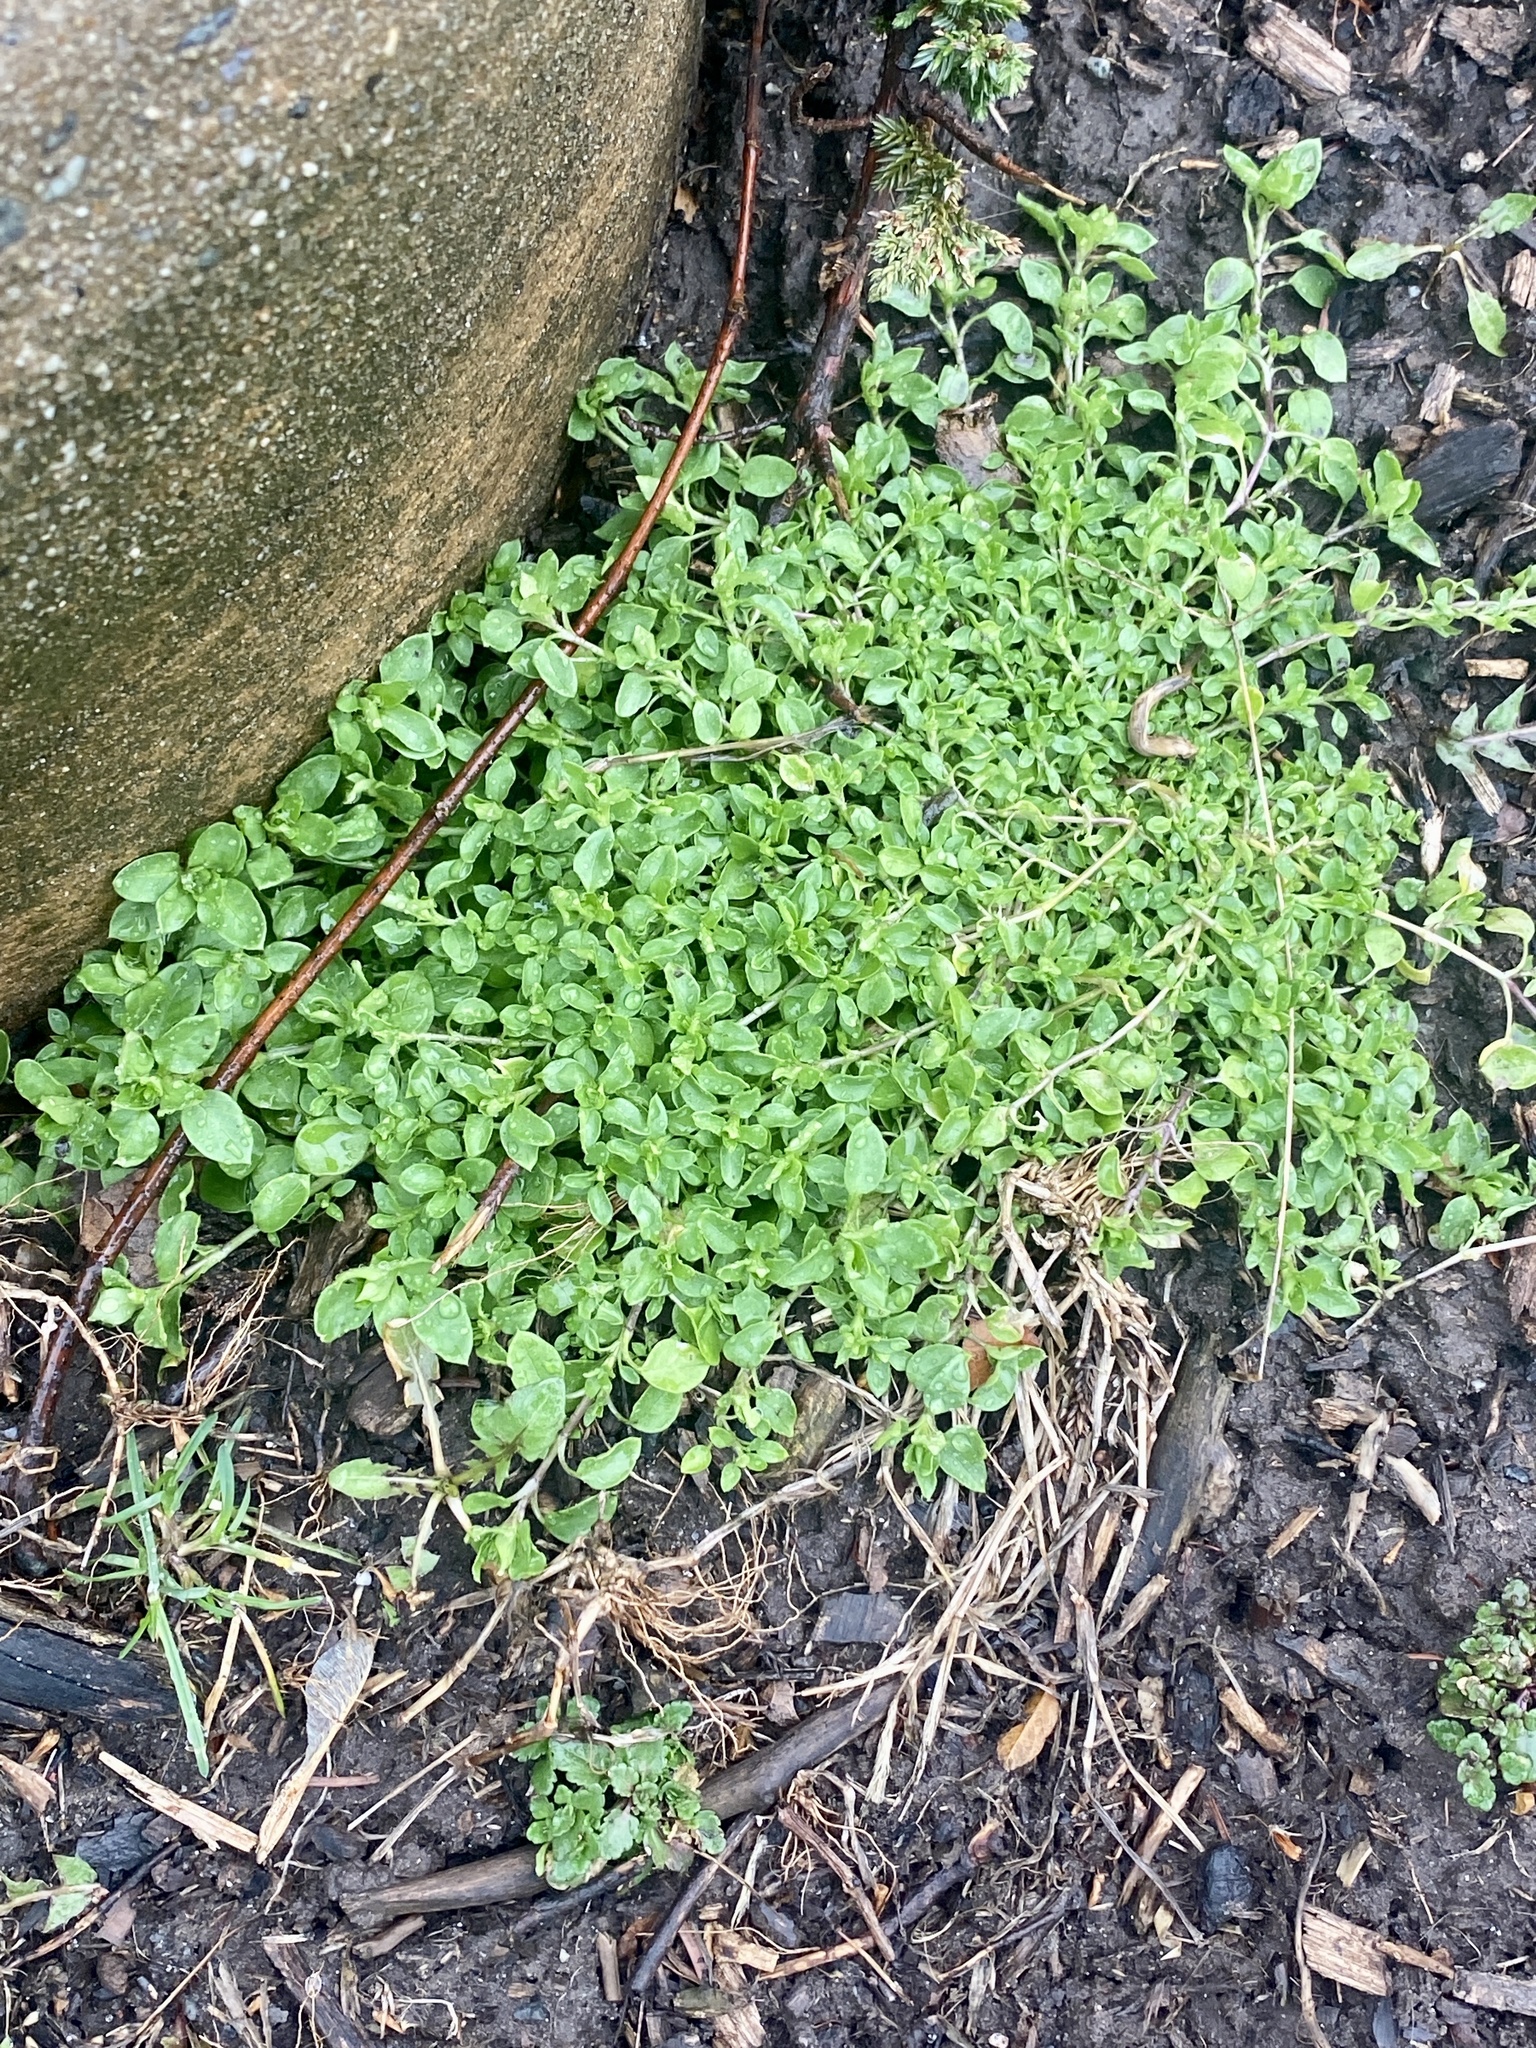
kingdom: Plantae
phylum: Tracheophyta
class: Magnoliopsida
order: Caryophyllales
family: Caryophyllaceae
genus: Stellaria
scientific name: Stellaria media
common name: Common chickweed
